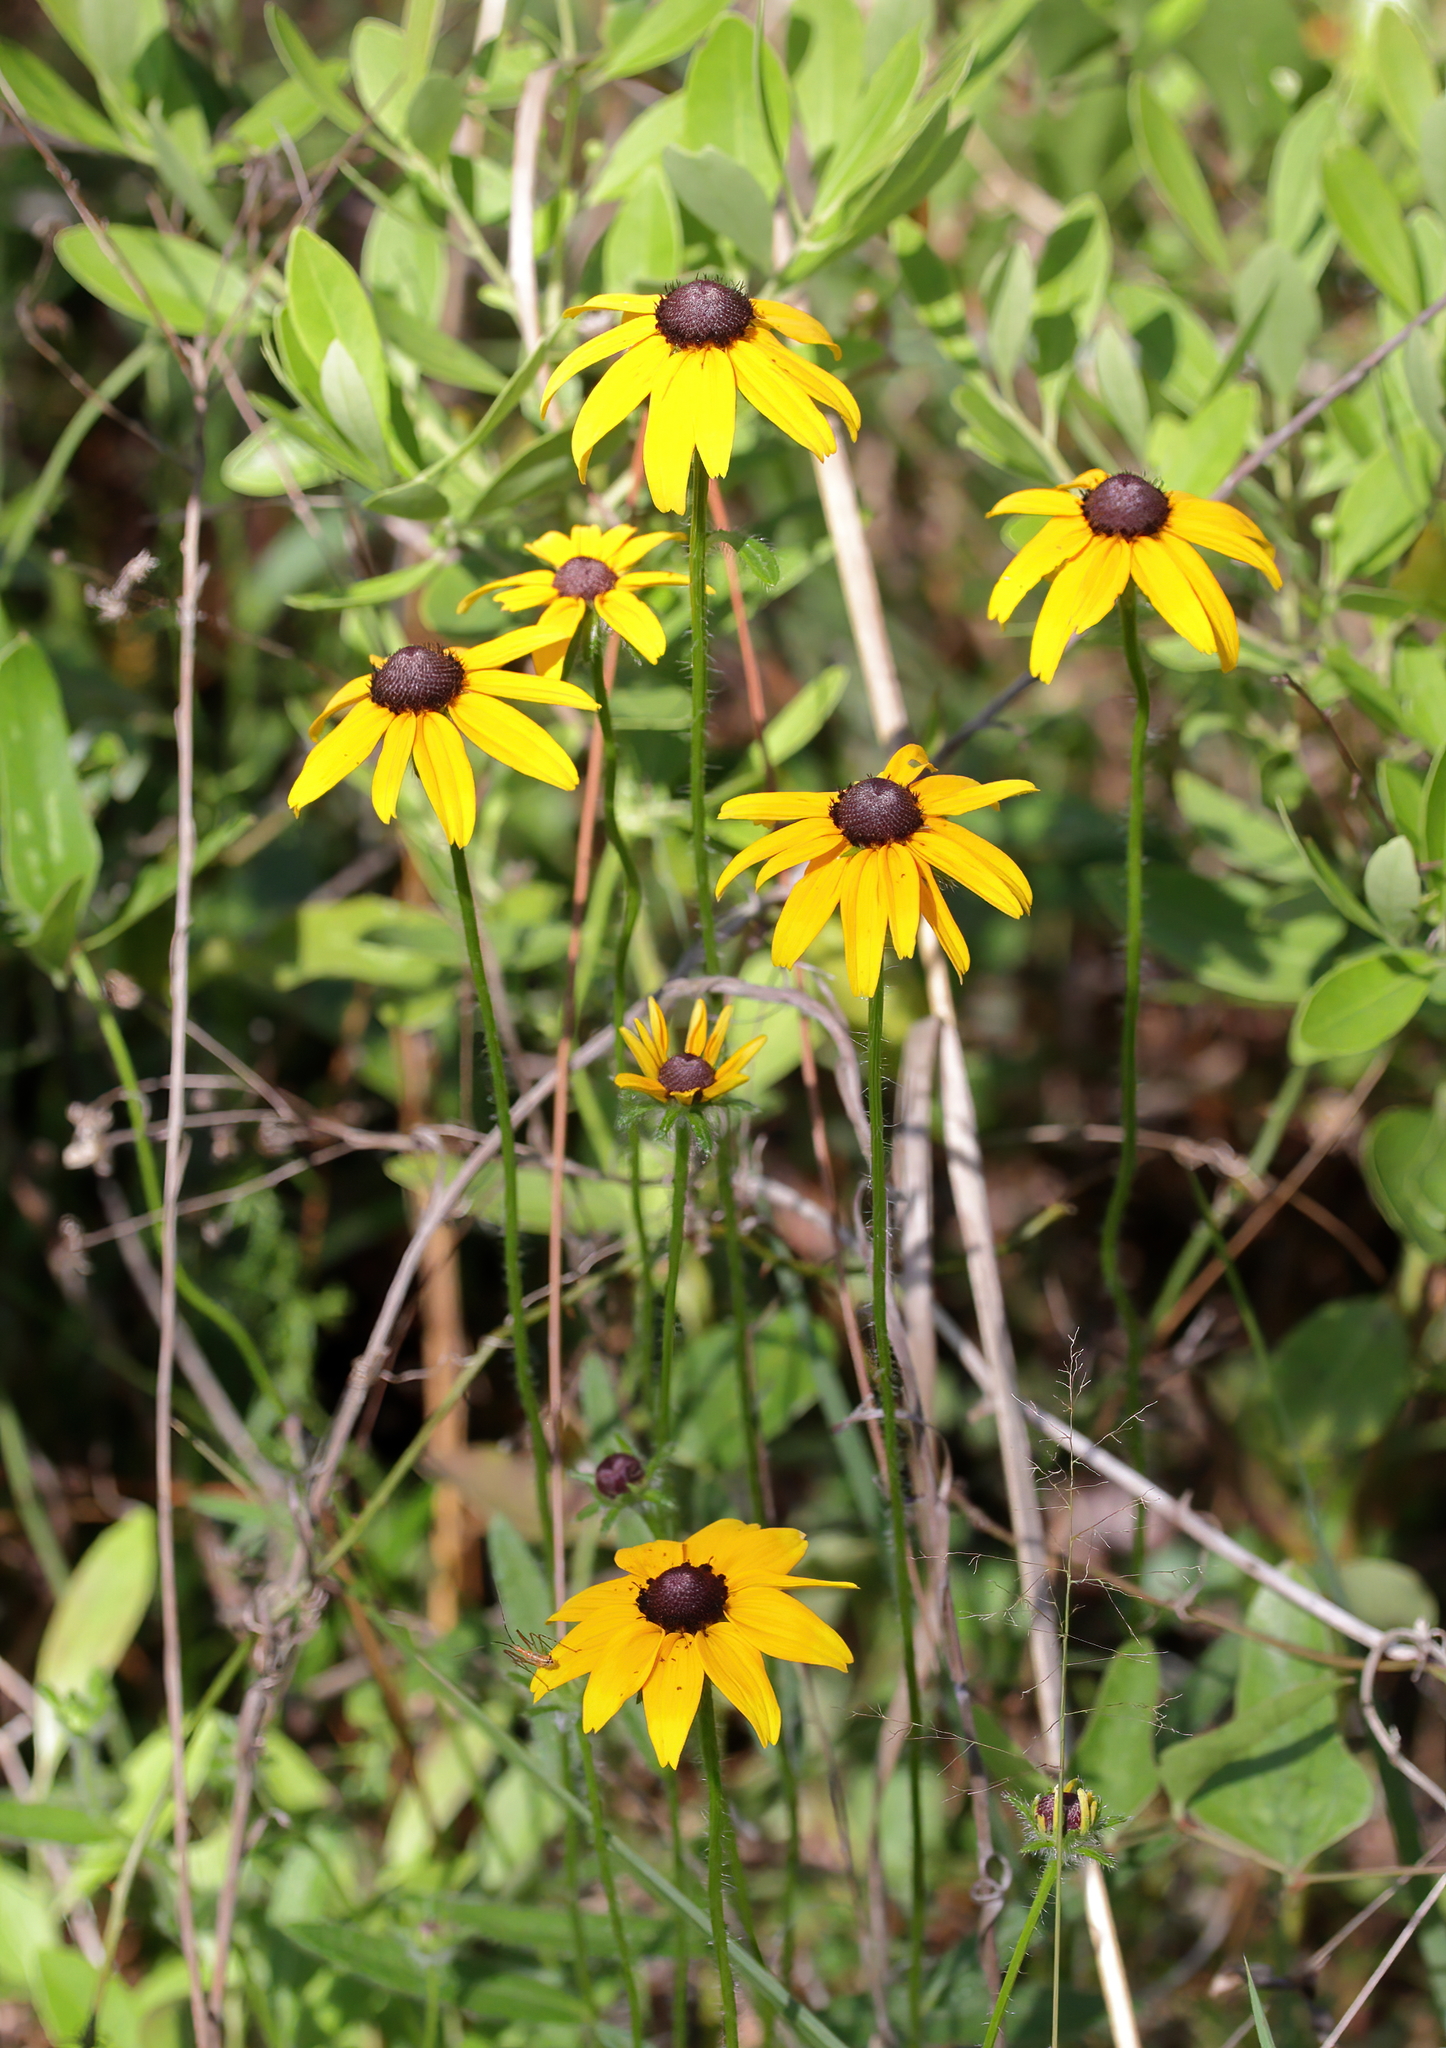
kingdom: Plantae
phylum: Tracheophyta
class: Magnoliopsida
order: Asterales
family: Asteraceae
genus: Rudbeckia
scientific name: Rudbeckia hirta
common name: Black-eyed-susan
